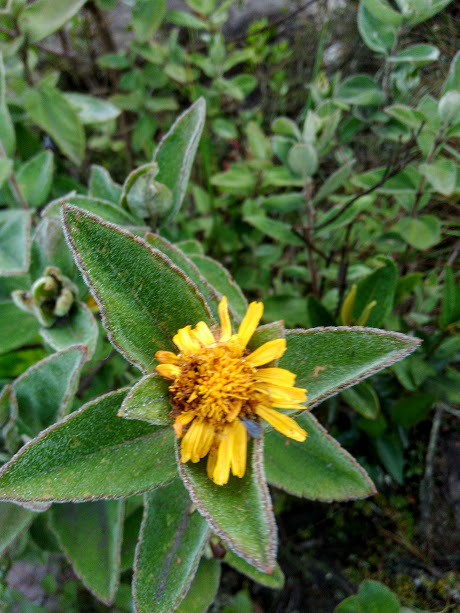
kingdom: Plantae
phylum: Tracheophyta
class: Magnoliopsida
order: Asterales
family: Asteraceae
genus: Calea
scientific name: Calea peruviana
